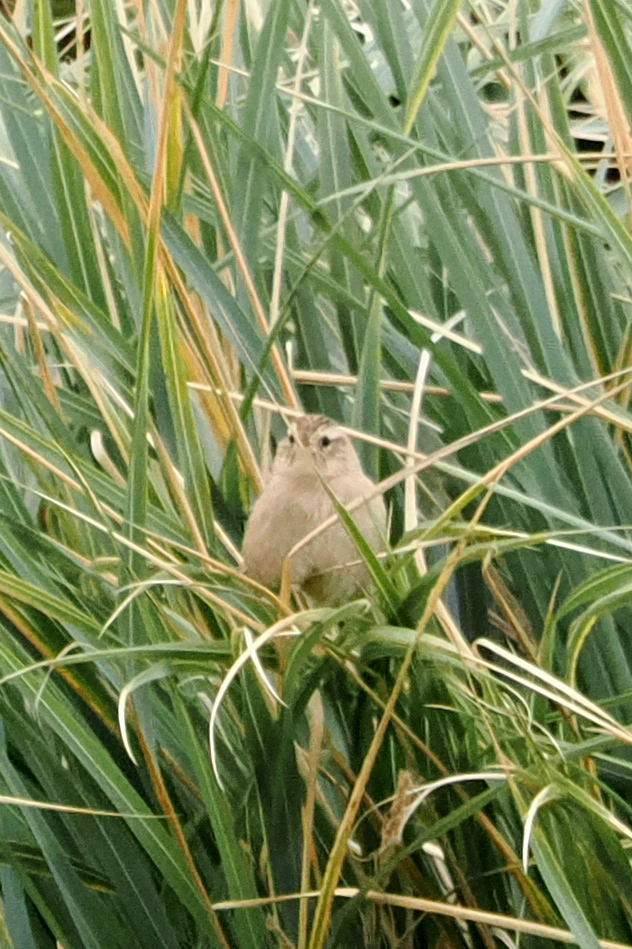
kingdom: Animalia
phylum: Chordata
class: Aves
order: Passeriformes
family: Troglodytidae
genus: Cistothorus
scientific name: Cistothorus platensis
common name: Sedge wren
